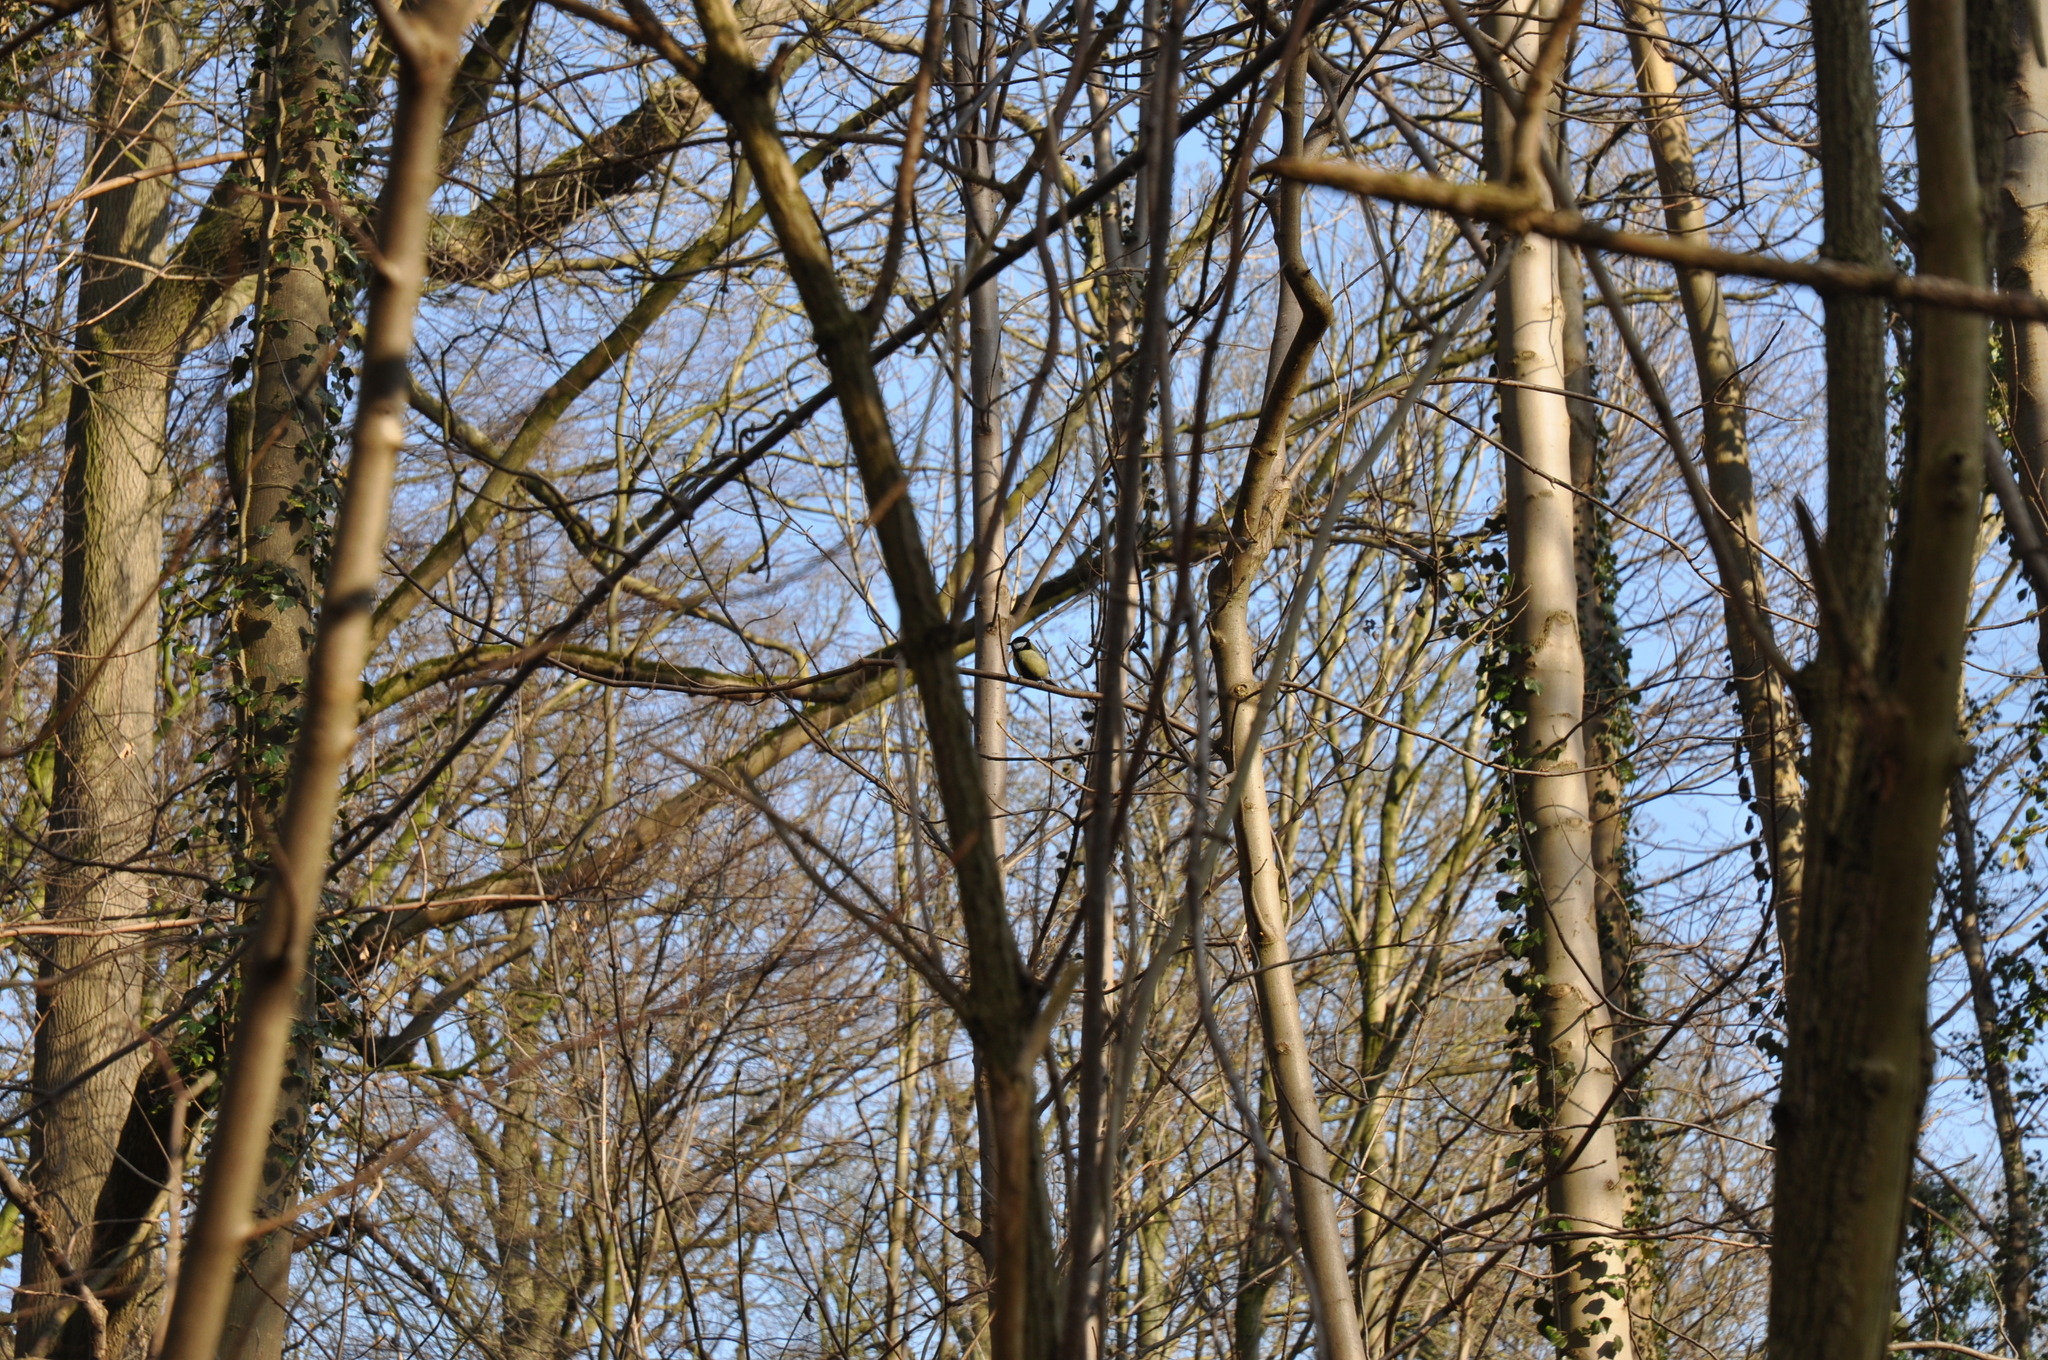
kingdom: Animalia
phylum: Chordata
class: Aves
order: Passeriformes
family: Paridae
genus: Parus
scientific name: Parus major
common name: Great tit
